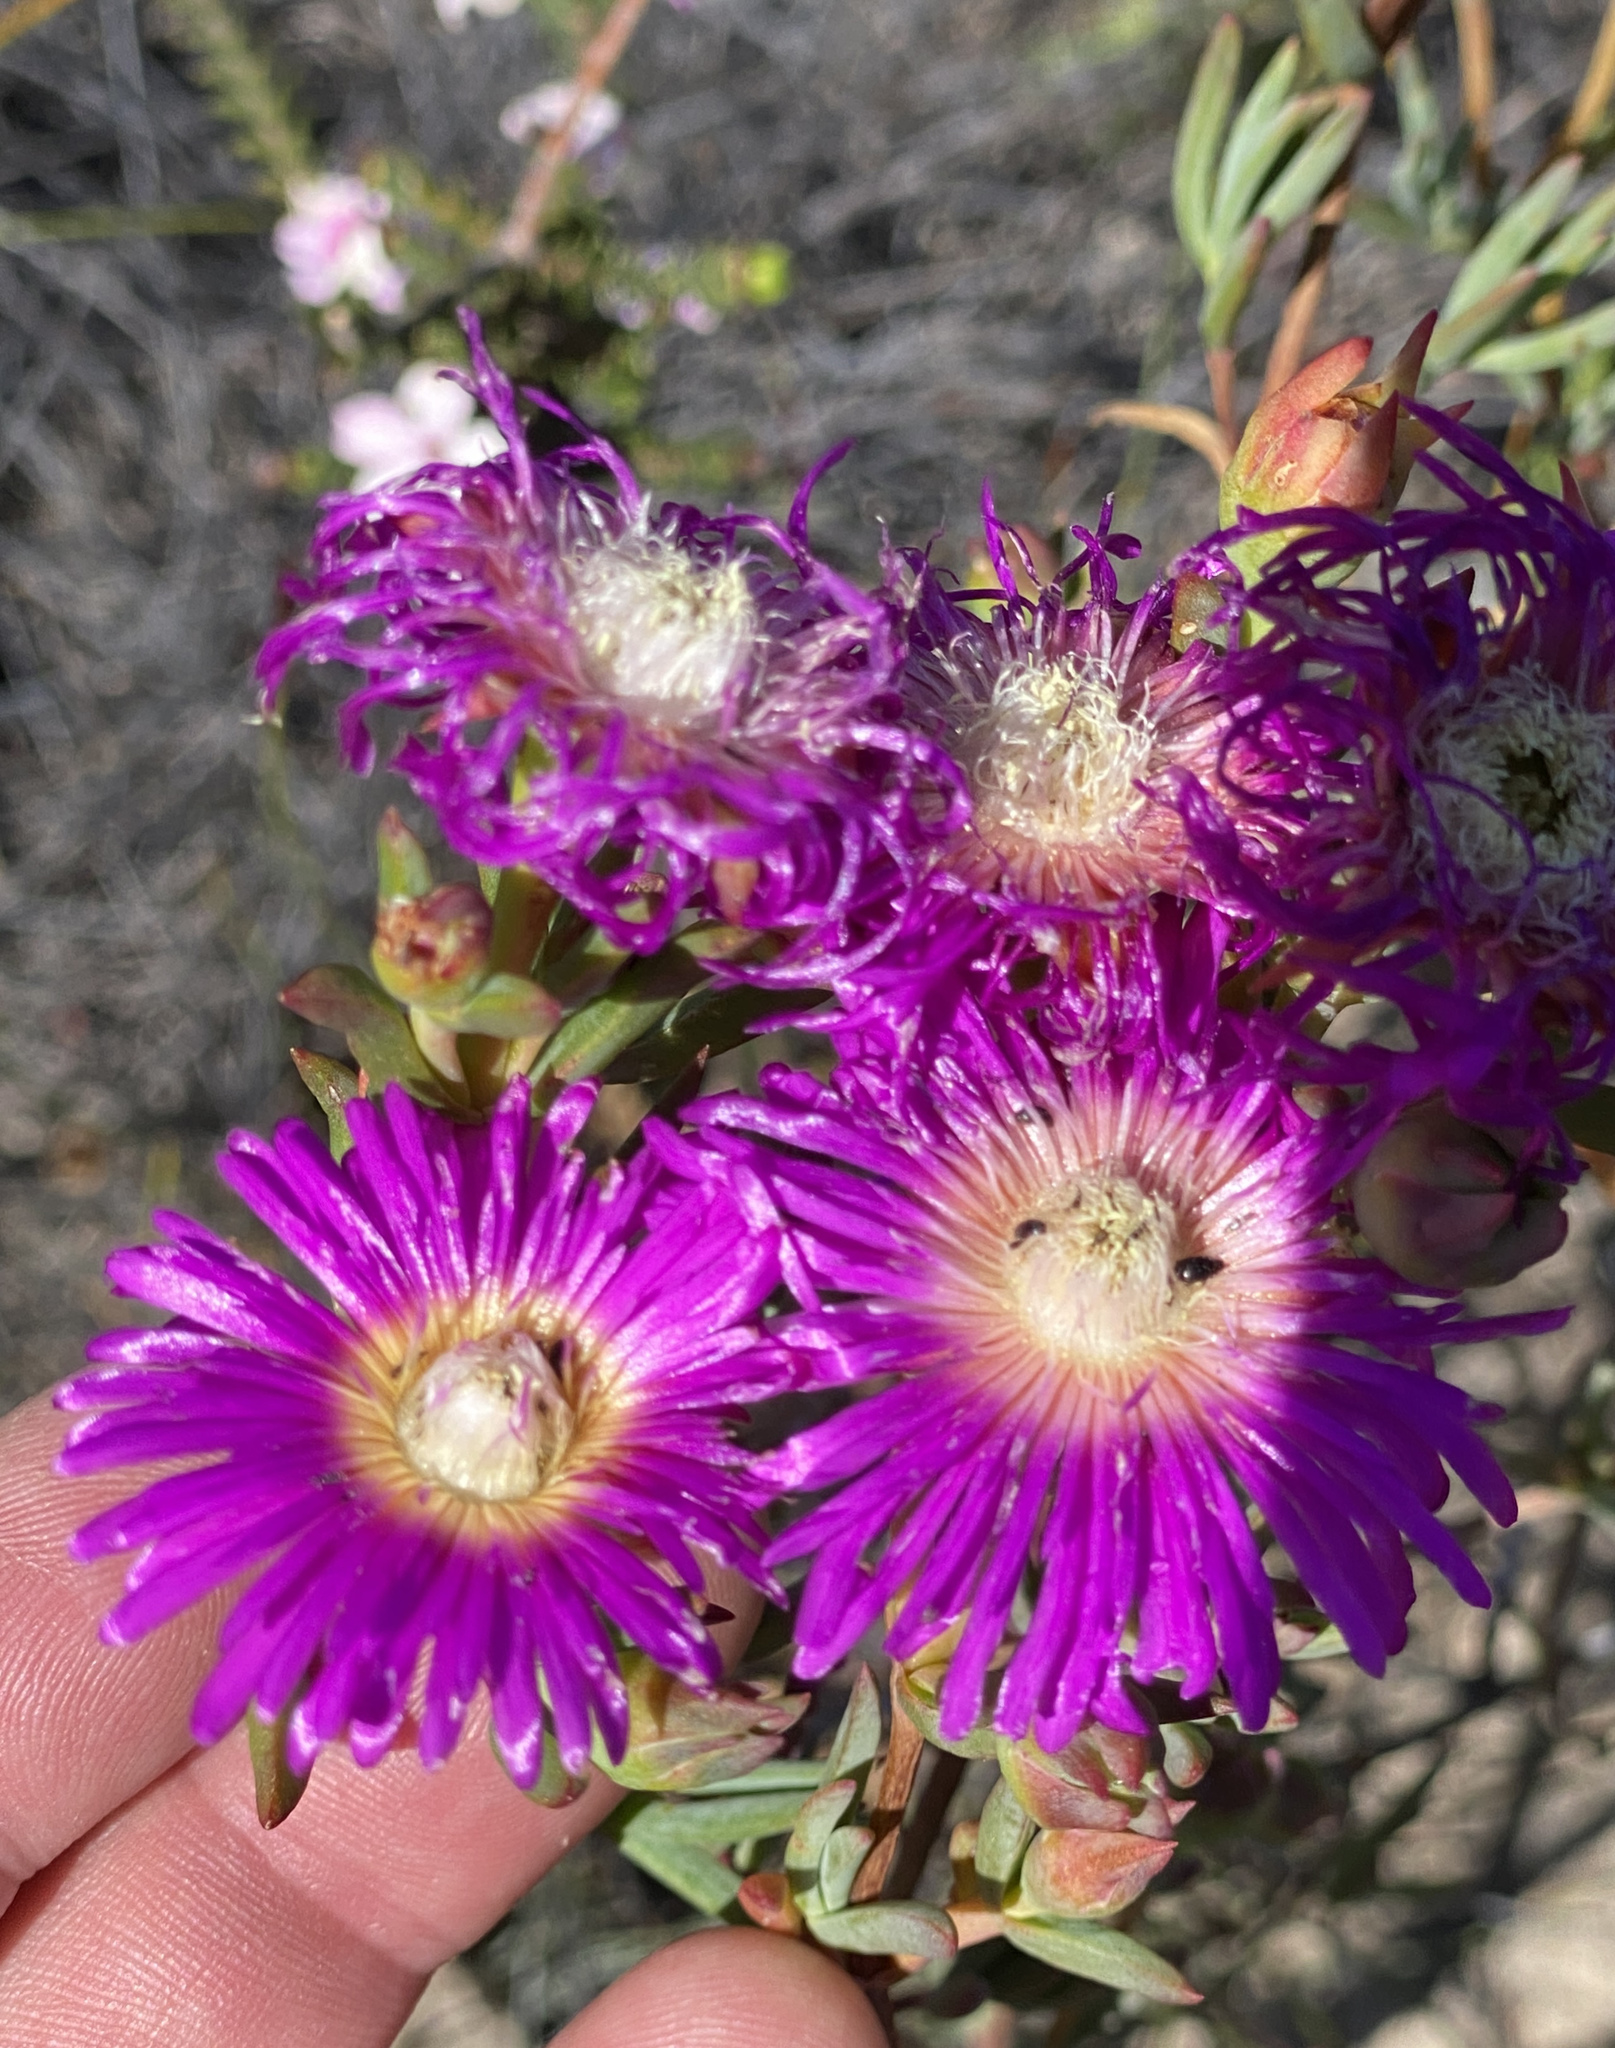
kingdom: Plantae
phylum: Tracheophyta
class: Magnoliopsida
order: Caryophyllales
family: Aizoaceae
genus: Lampranthus
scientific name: Lampranthus mutans
